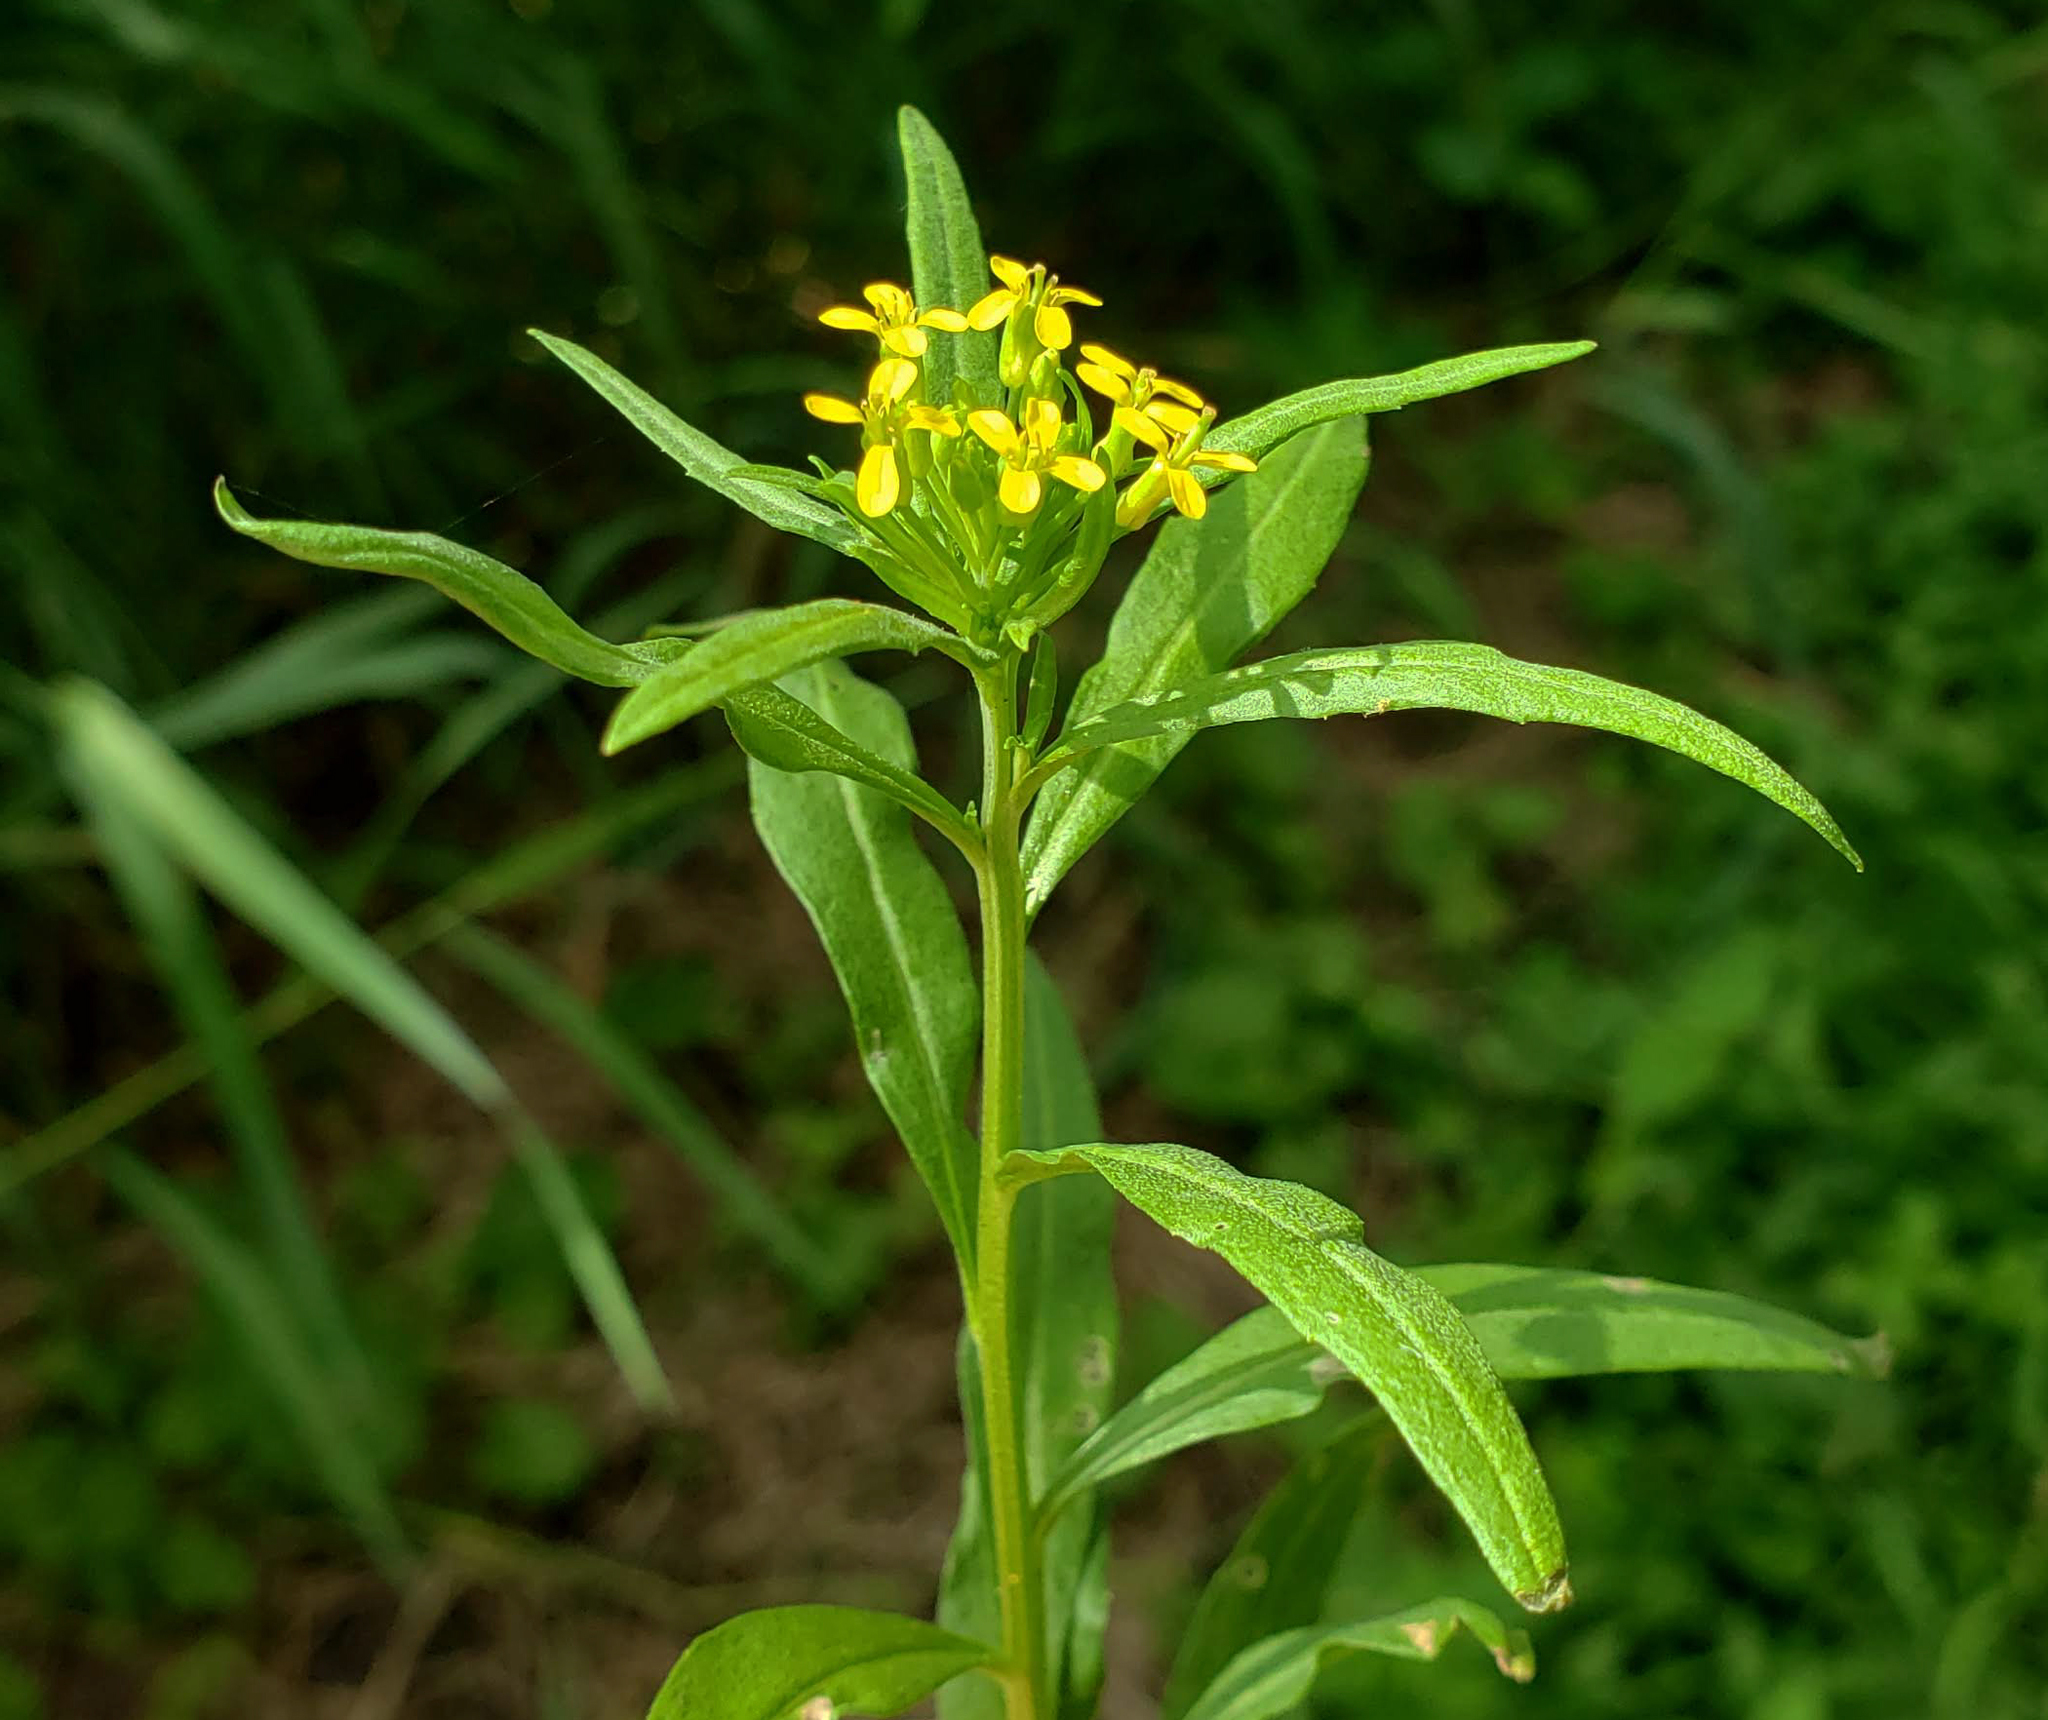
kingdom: Plantae
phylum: Tracheophyta
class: Magnoliopsida
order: Brassicales
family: Brassicaceae
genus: Erysimum
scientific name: Erysimum cheiranthoides
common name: Treacle mustard
